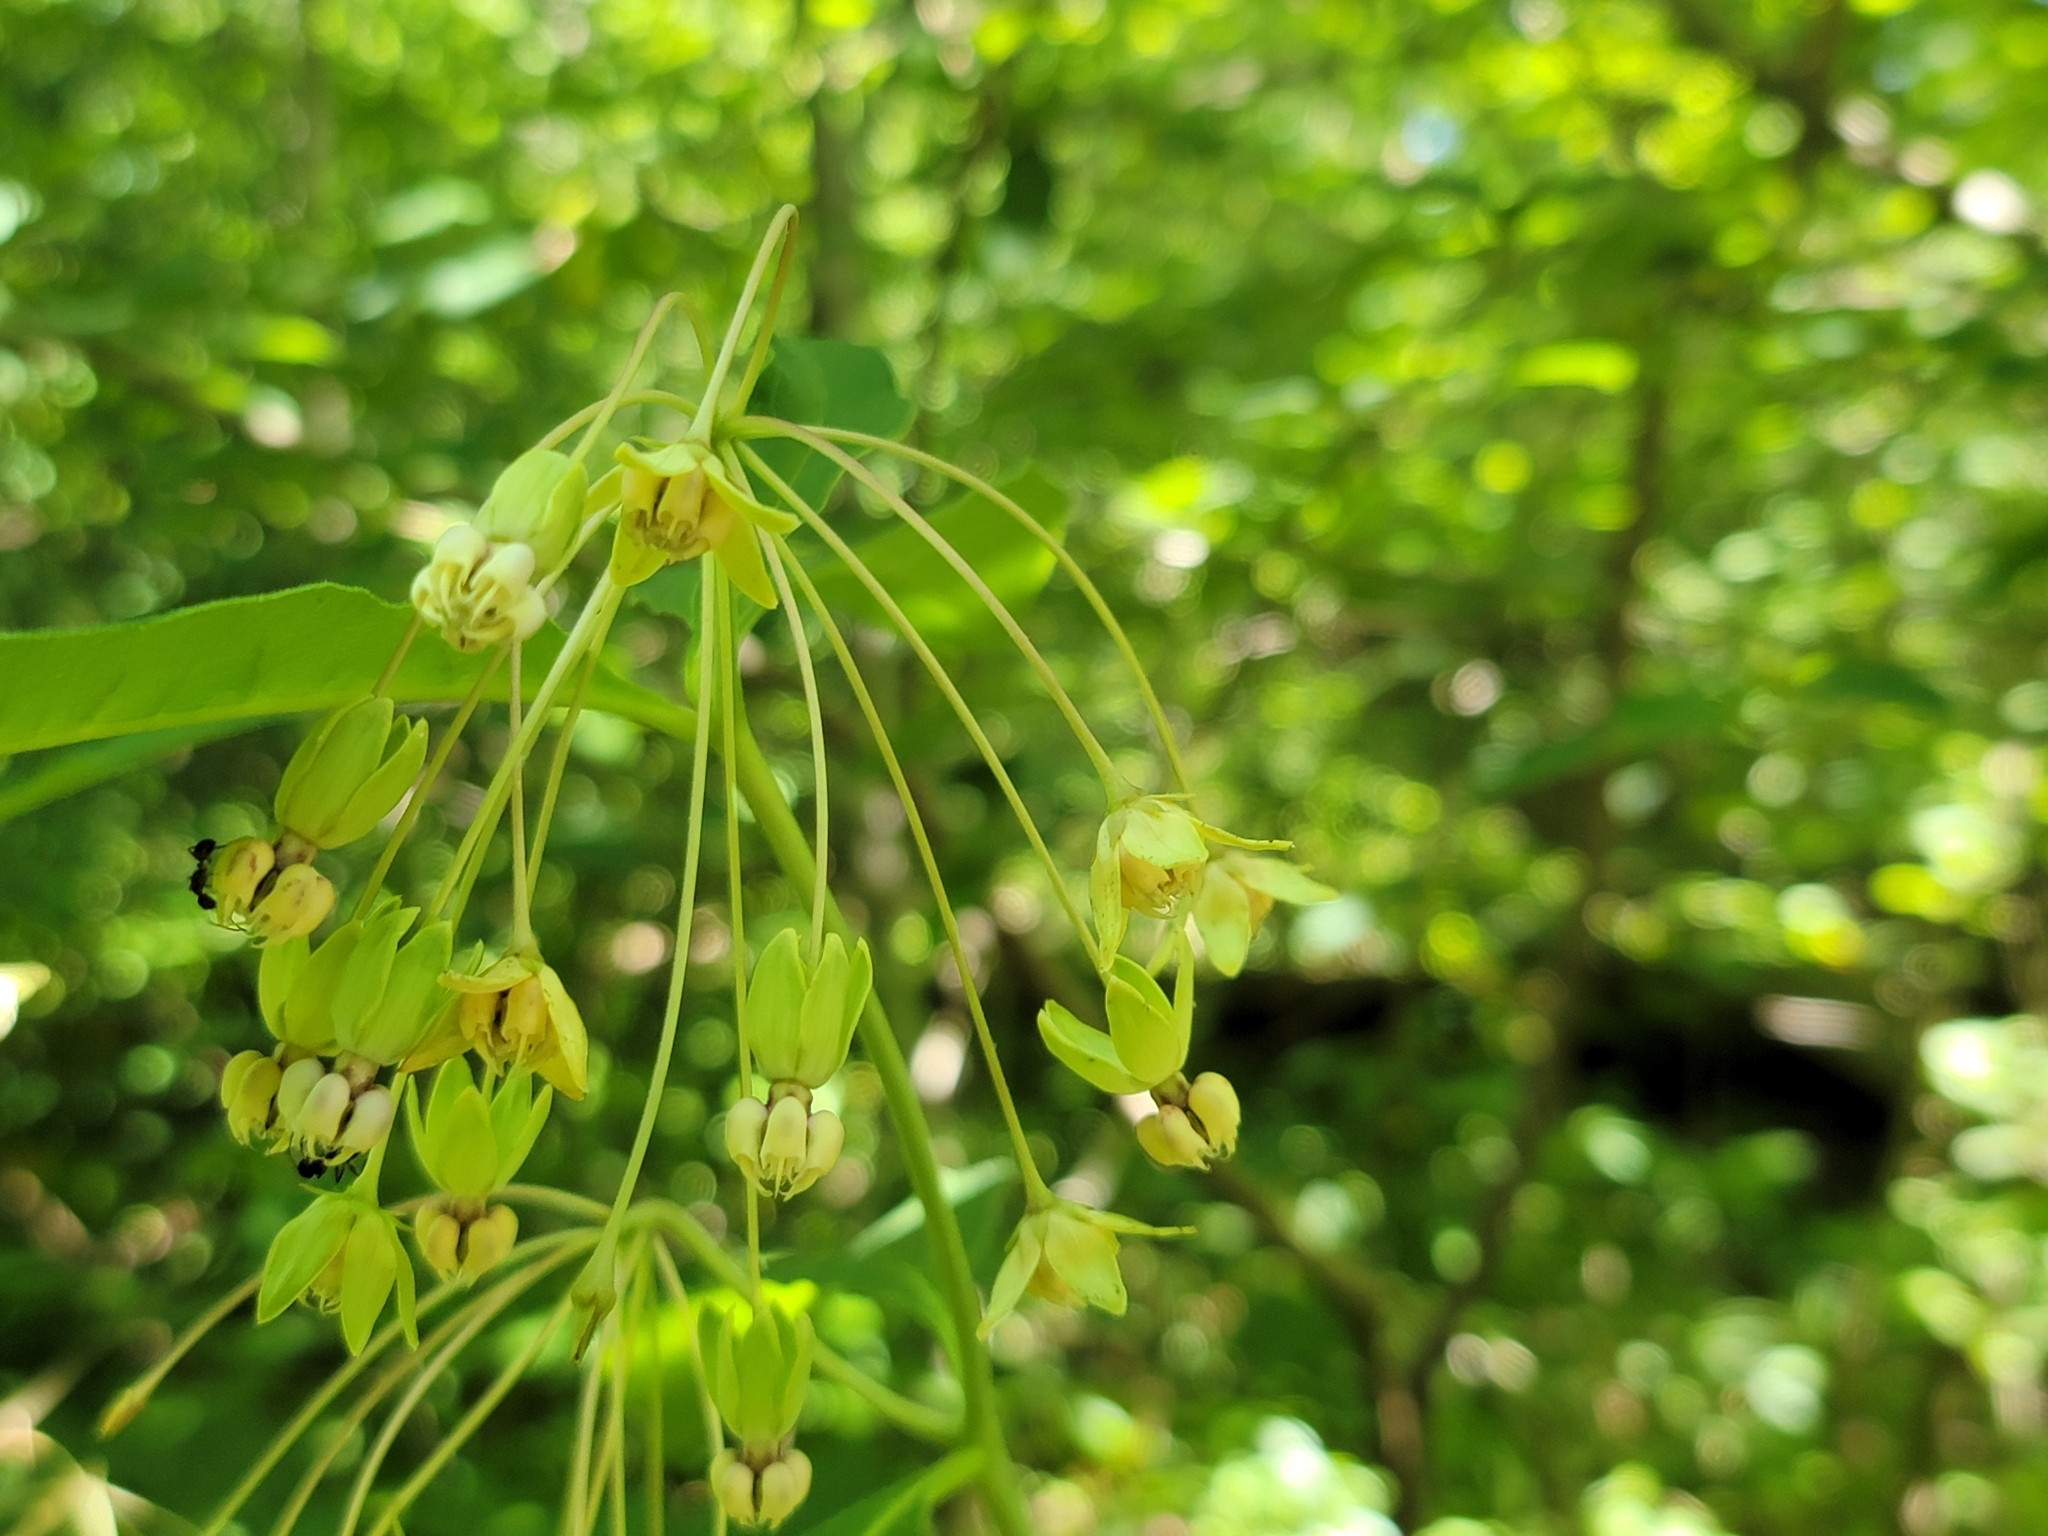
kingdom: Plantae
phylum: Tracheophyta
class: Magnoliopsida
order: Gentianales
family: Apocynaceae
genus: Asclepias
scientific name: Asclepias exaltata
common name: Poke milkweed
